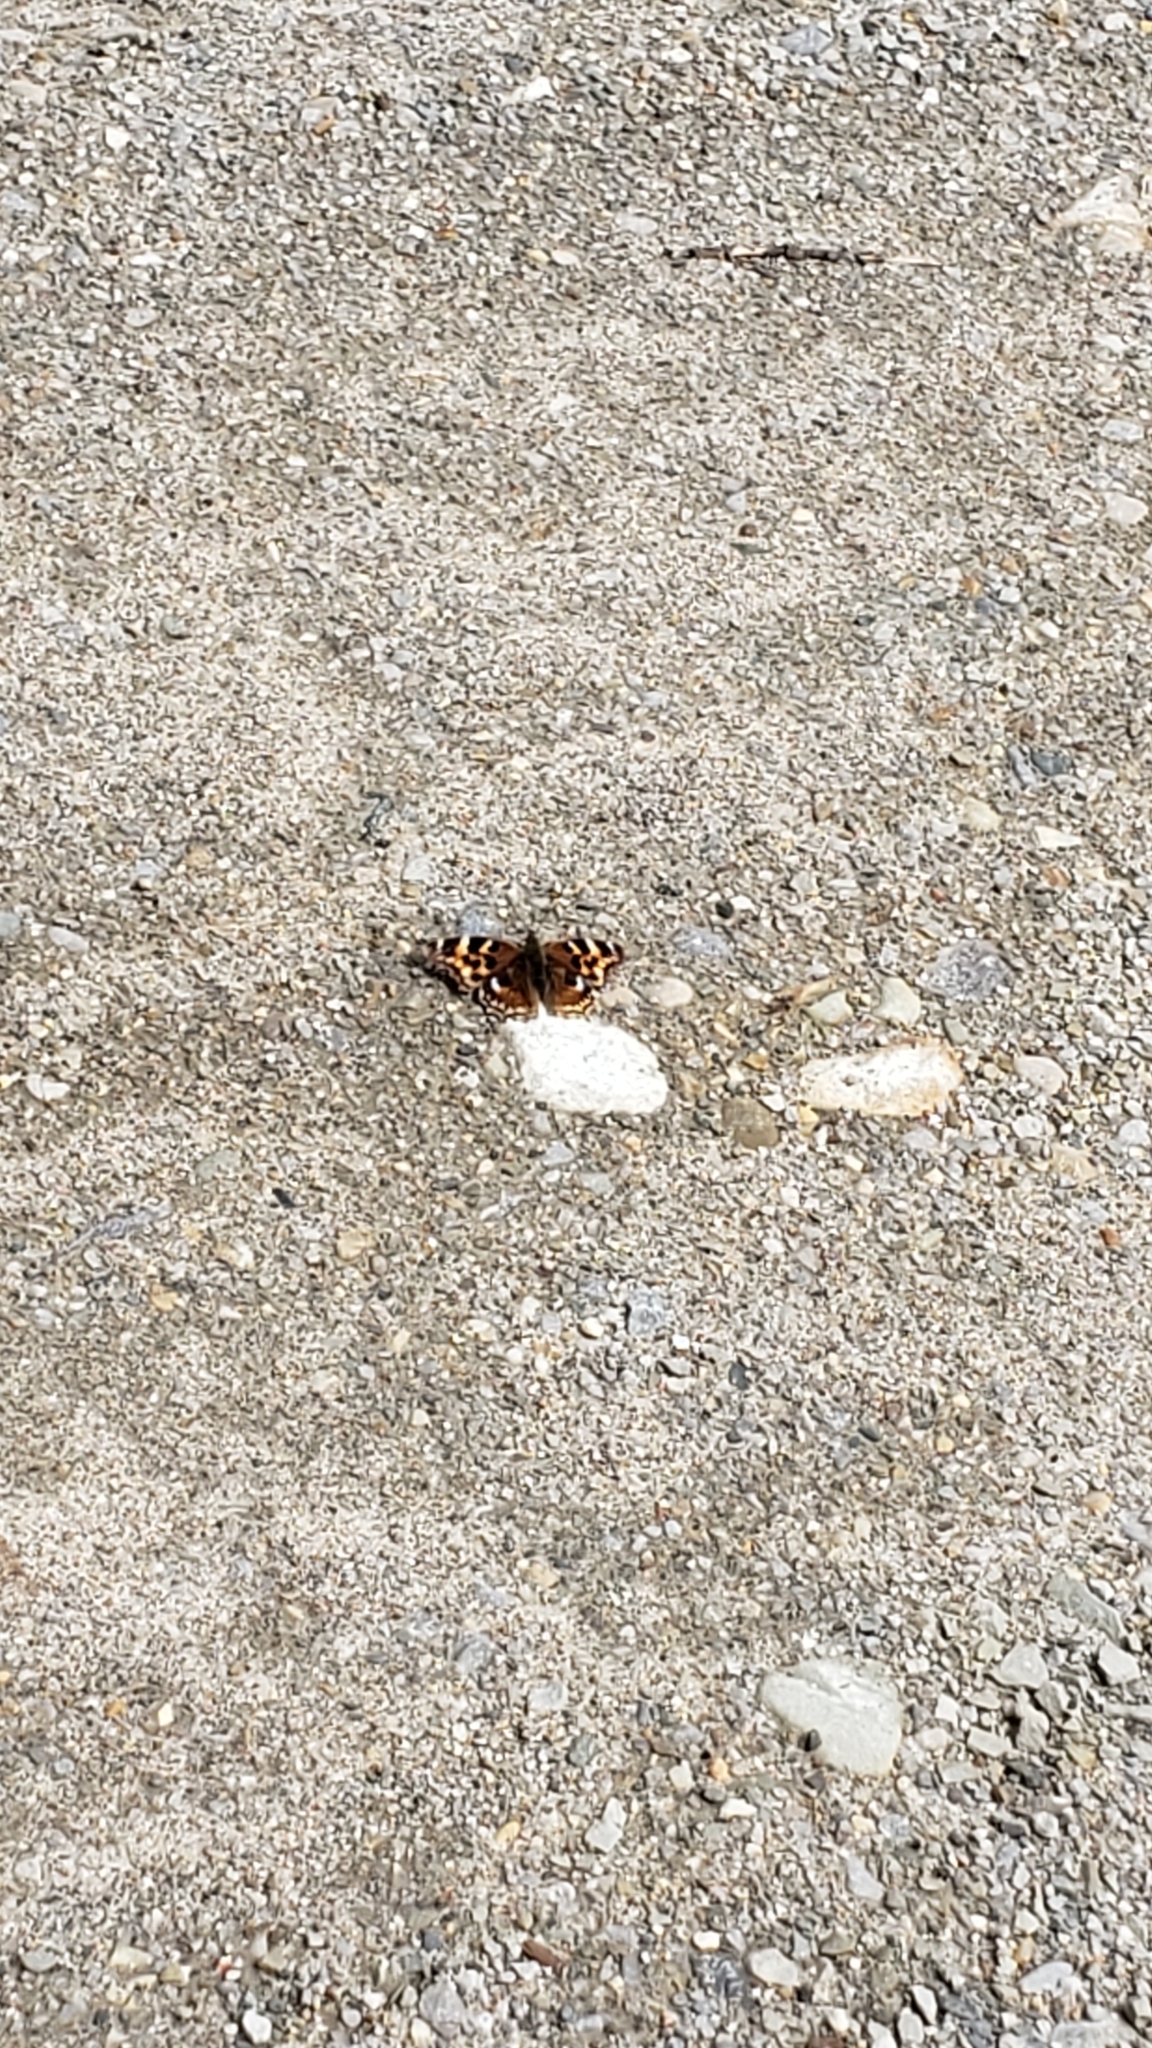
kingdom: Animalia
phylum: Arthropoda
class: Insecta
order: Lepidoptera
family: Nymphalidae
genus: Polygonia
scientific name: Polygonia vaualbum
